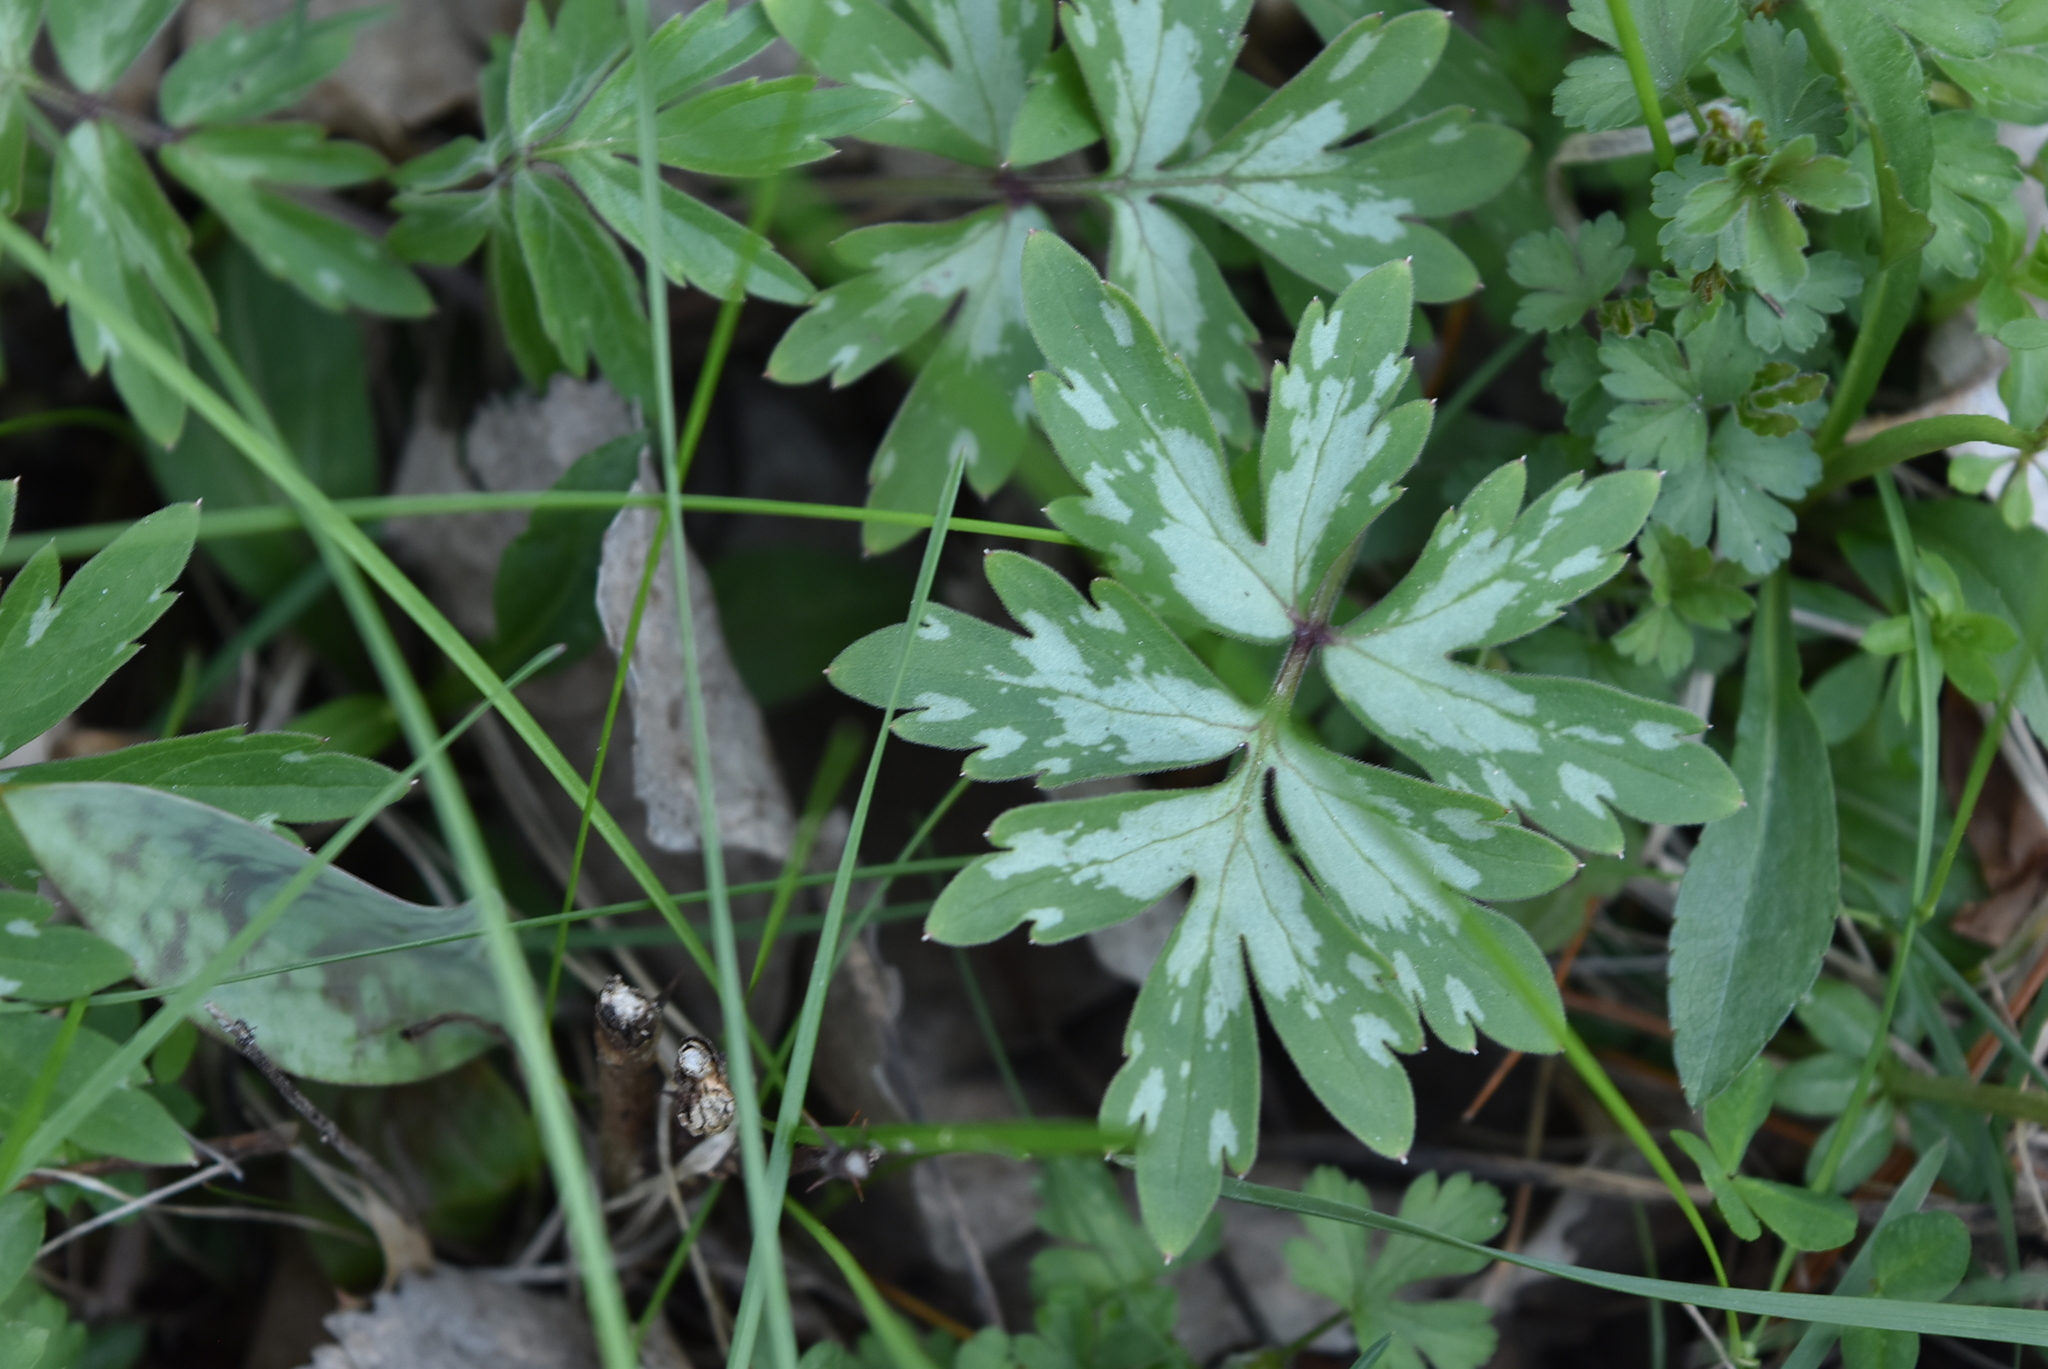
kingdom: Plantae
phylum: Tracheophyta
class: Magnoliopsida
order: Boraginales
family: Hydrophyllaceae
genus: Hydrophyllum
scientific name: Hydrophyllum virginianum
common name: Virginia waterleaf
